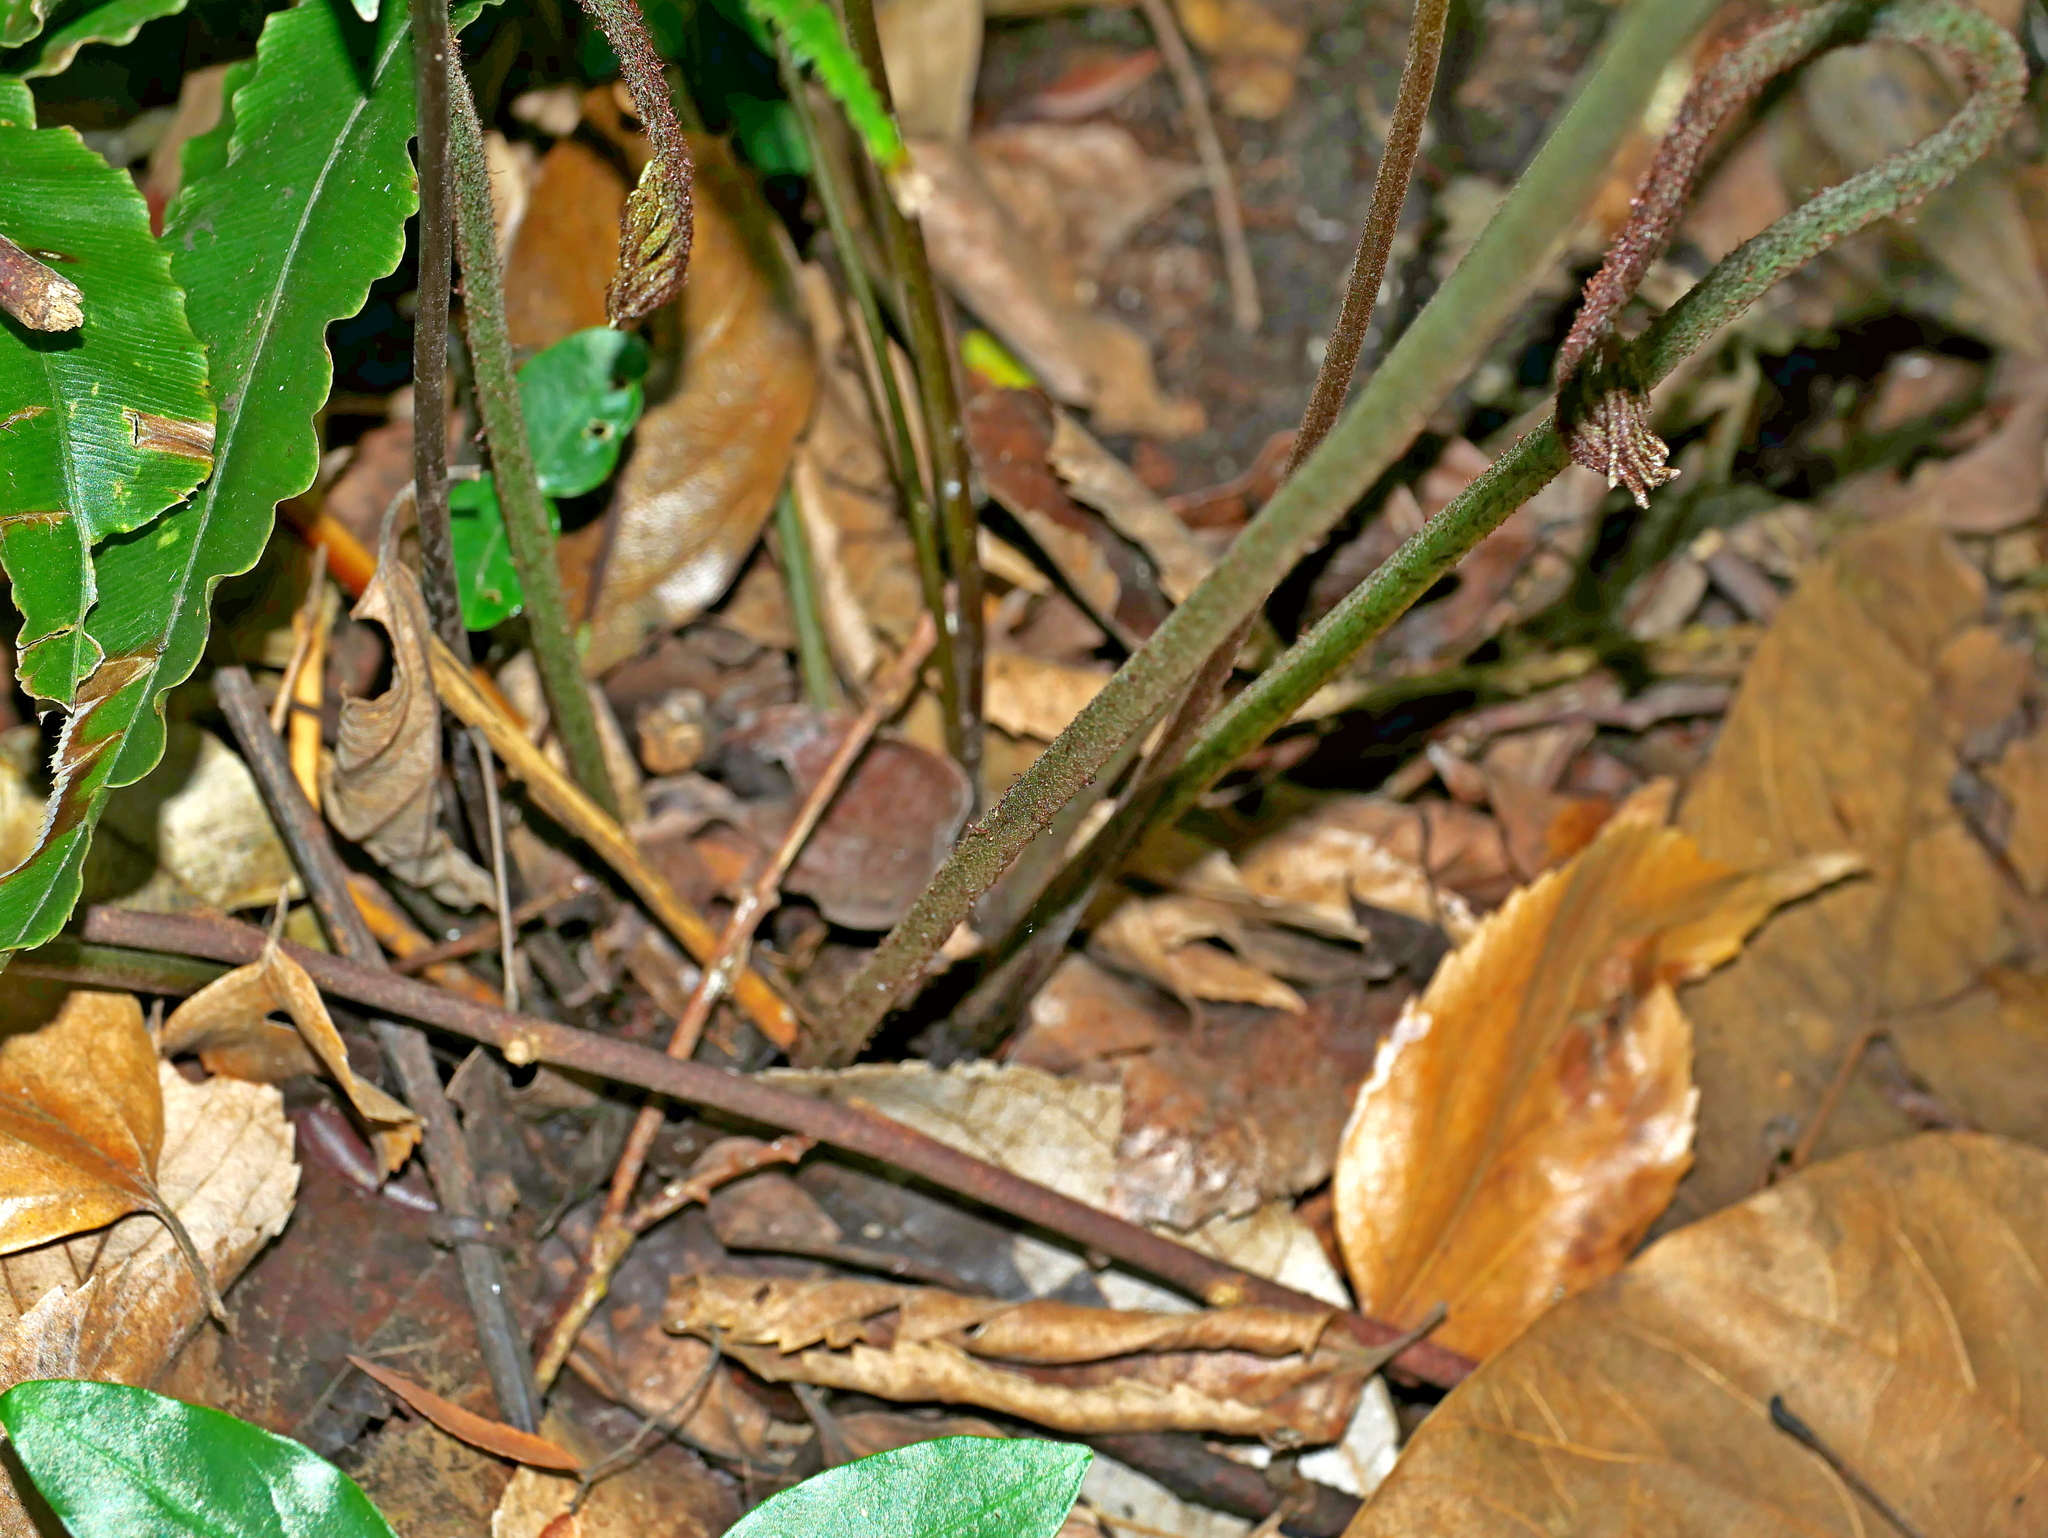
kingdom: Plantae
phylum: Tracheophyta
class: Polypodiopsida
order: Polypodiales
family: Pteridaceae
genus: Pteris
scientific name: Pteris subesquirolii
